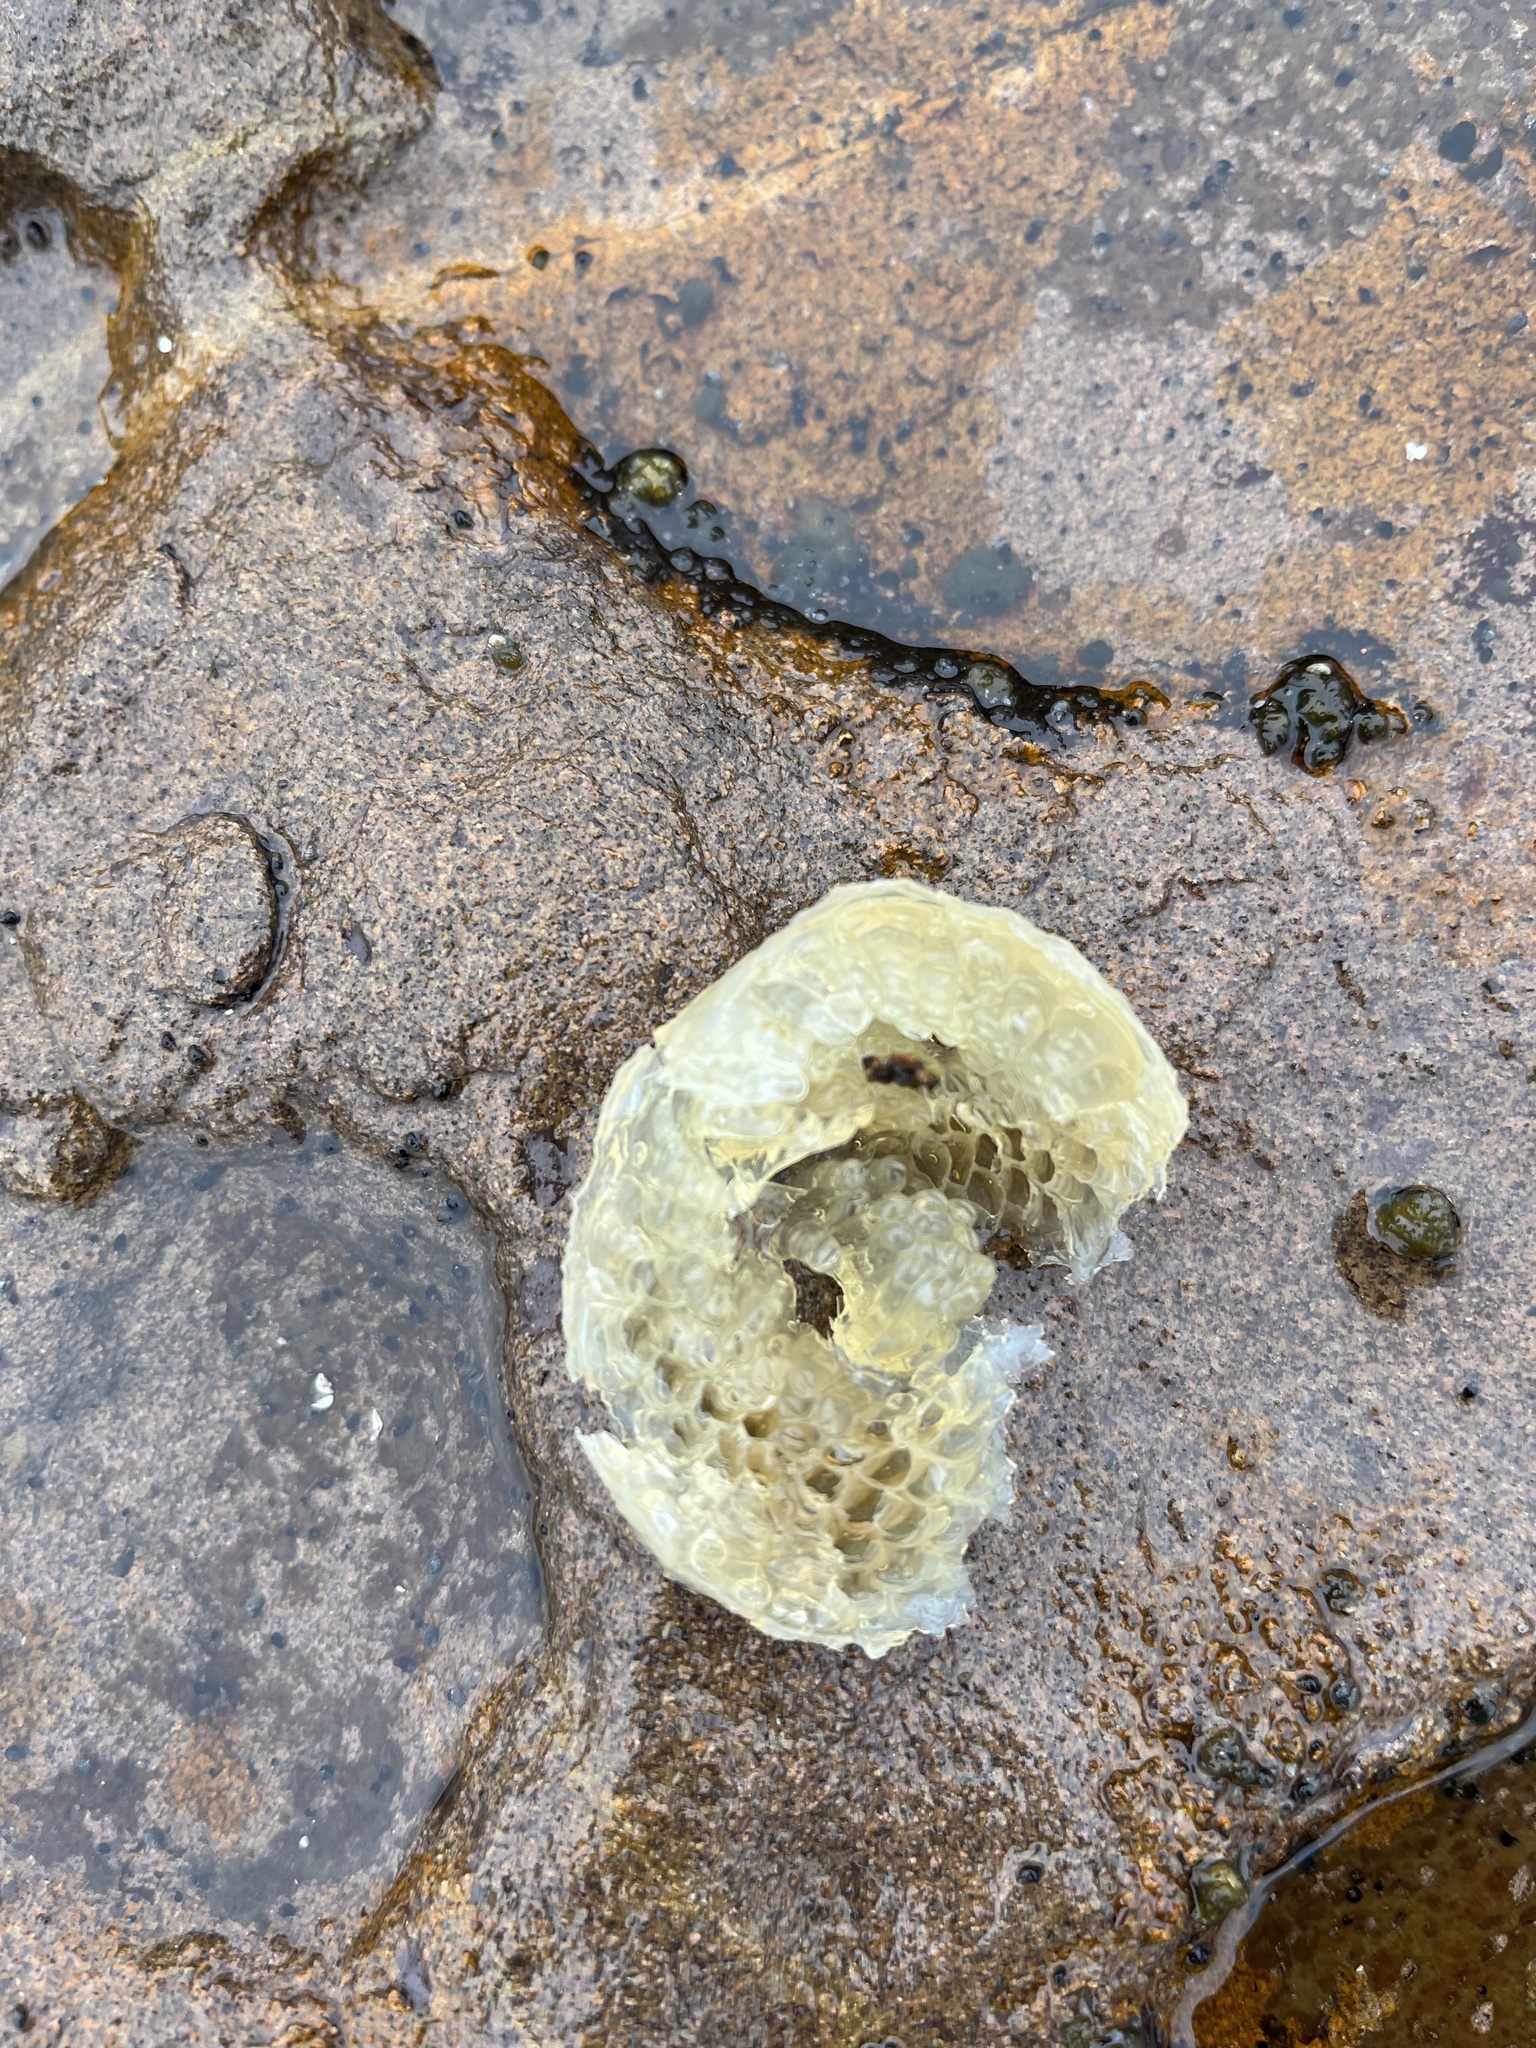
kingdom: Animalia
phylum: Mollusca
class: Gastropoda
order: Littorinimorpha
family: Cymatiidae
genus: Cabestana
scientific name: Cabestana spengleri
